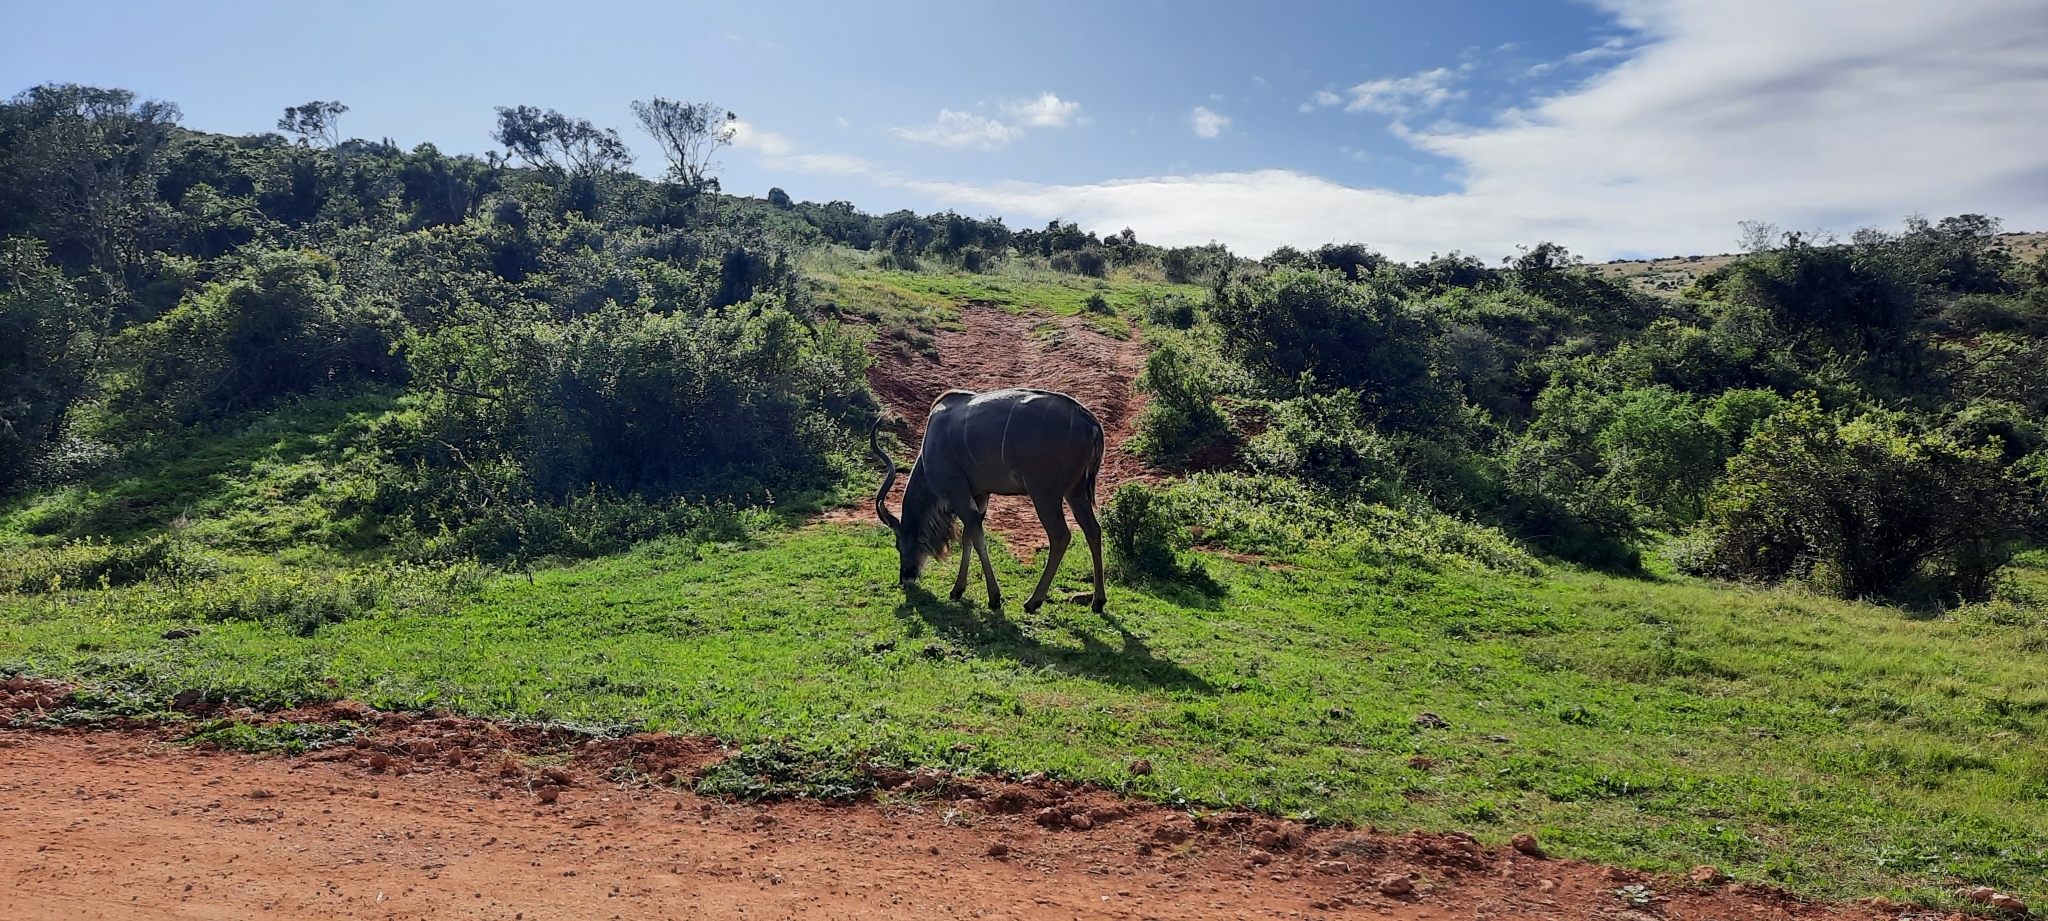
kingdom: Animalia
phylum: Chordata
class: Mammalia
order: Artiodactyla
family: Bovidae
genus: Tragelaphus
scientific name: Tragelaphus strepsiceros
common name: Greater kudu
